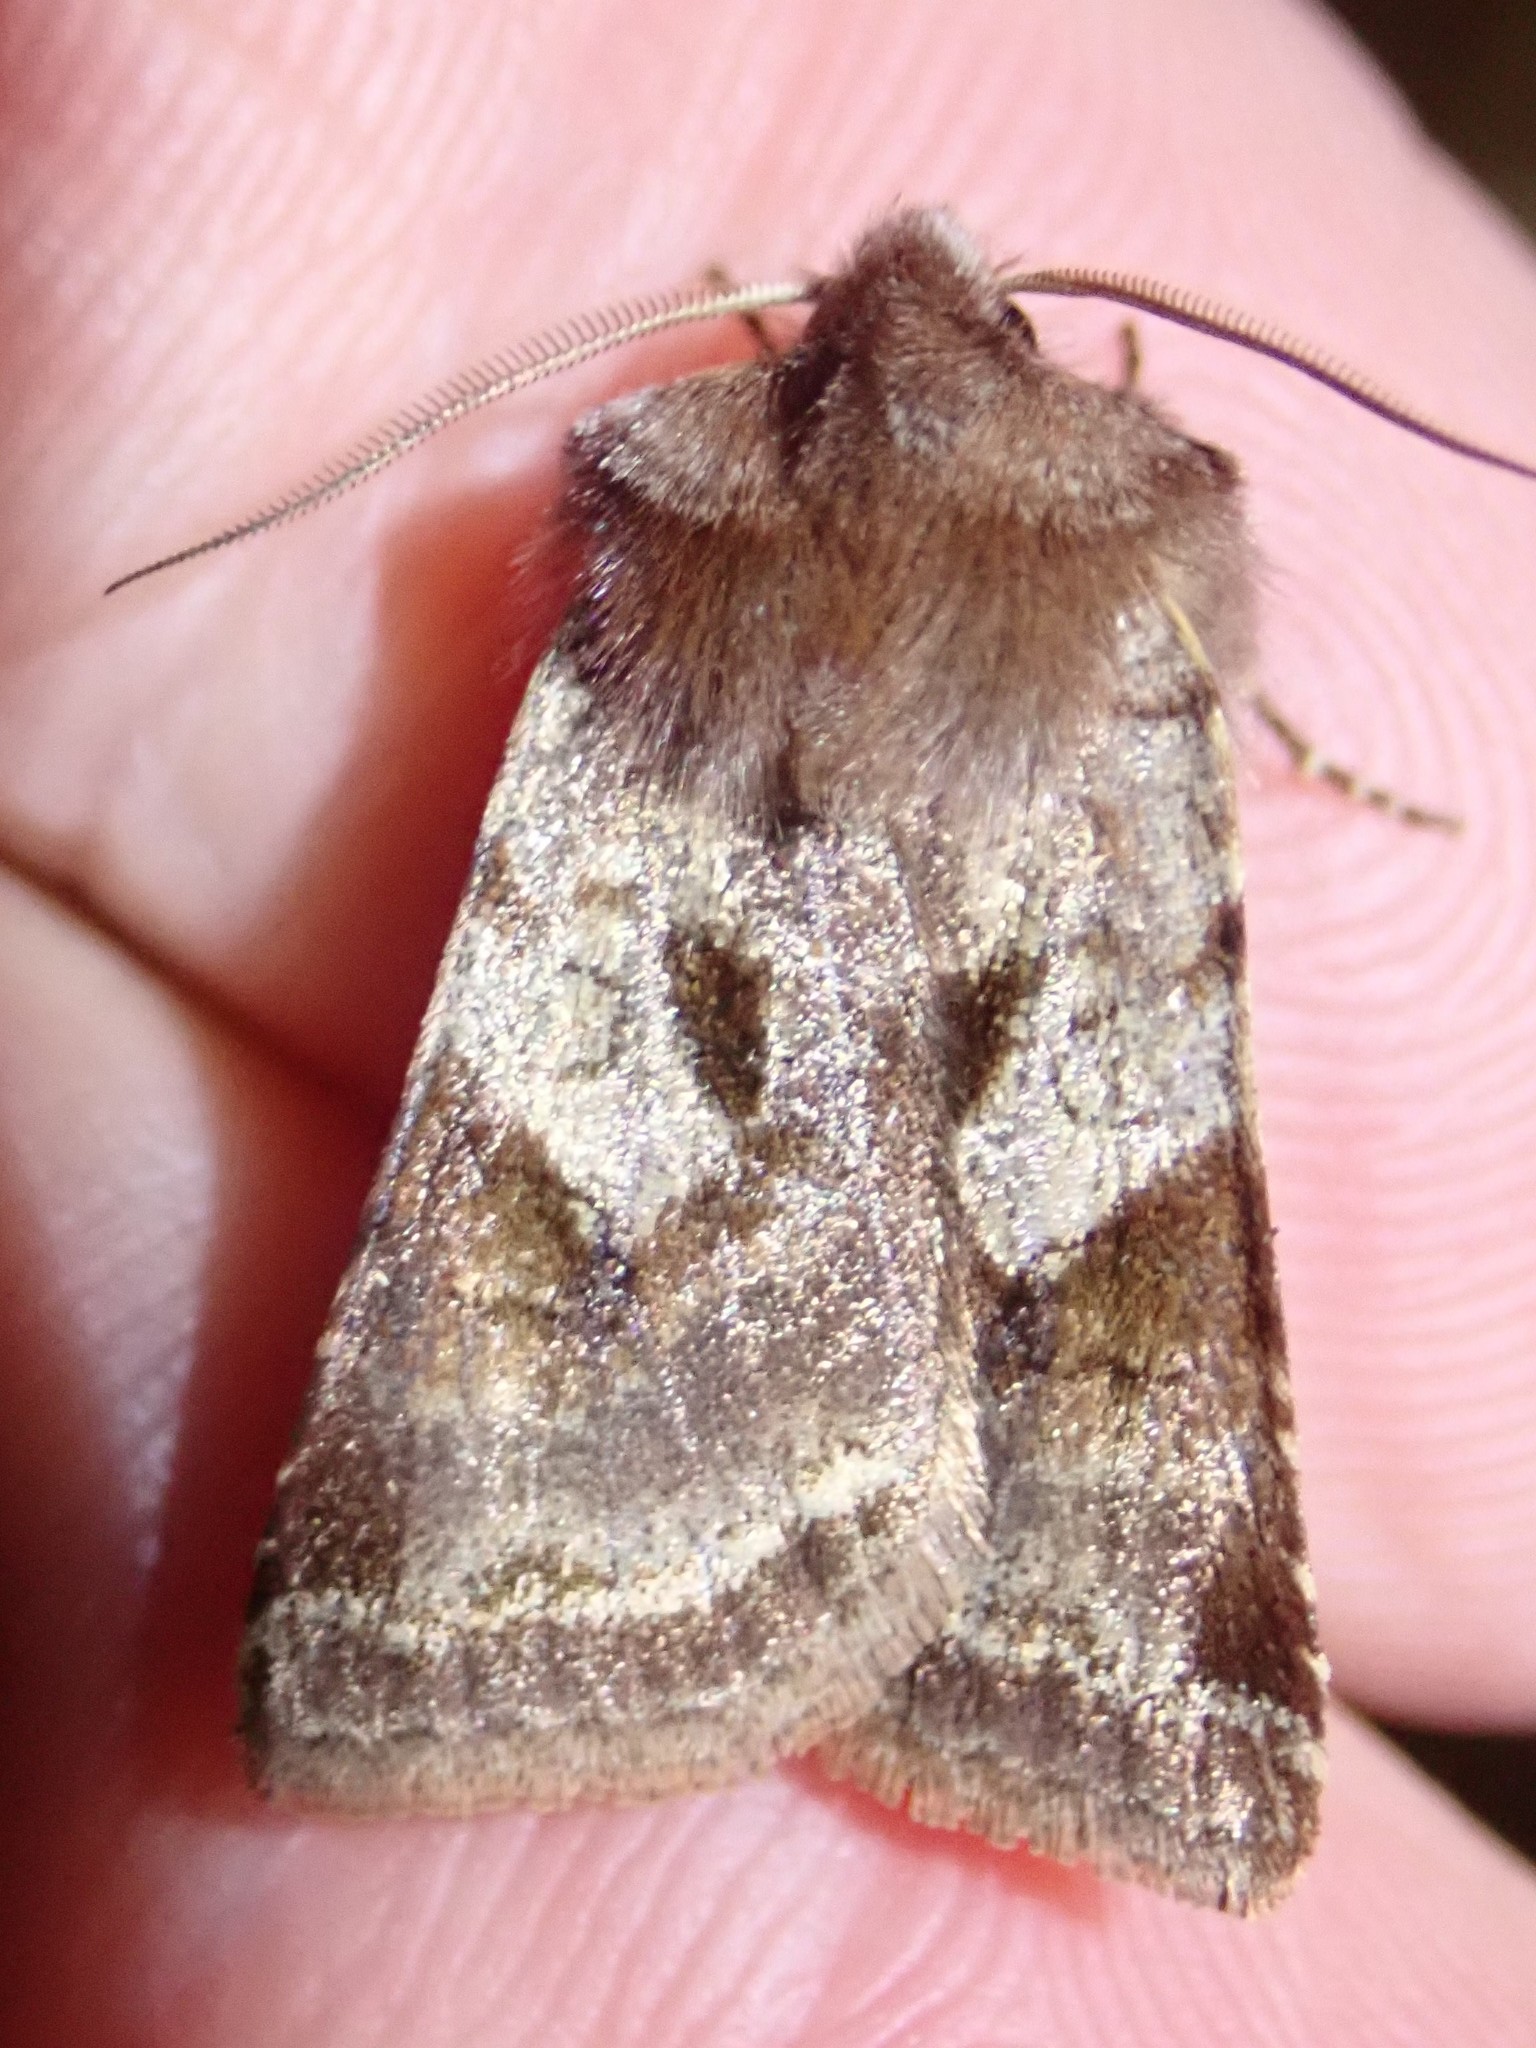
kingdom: Animalia
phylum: Arthropoda
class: Insecta
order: Lepidoptera
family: Noctuidae
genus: Cerastis
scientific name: Cerastis salicarum
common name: Willow dart
